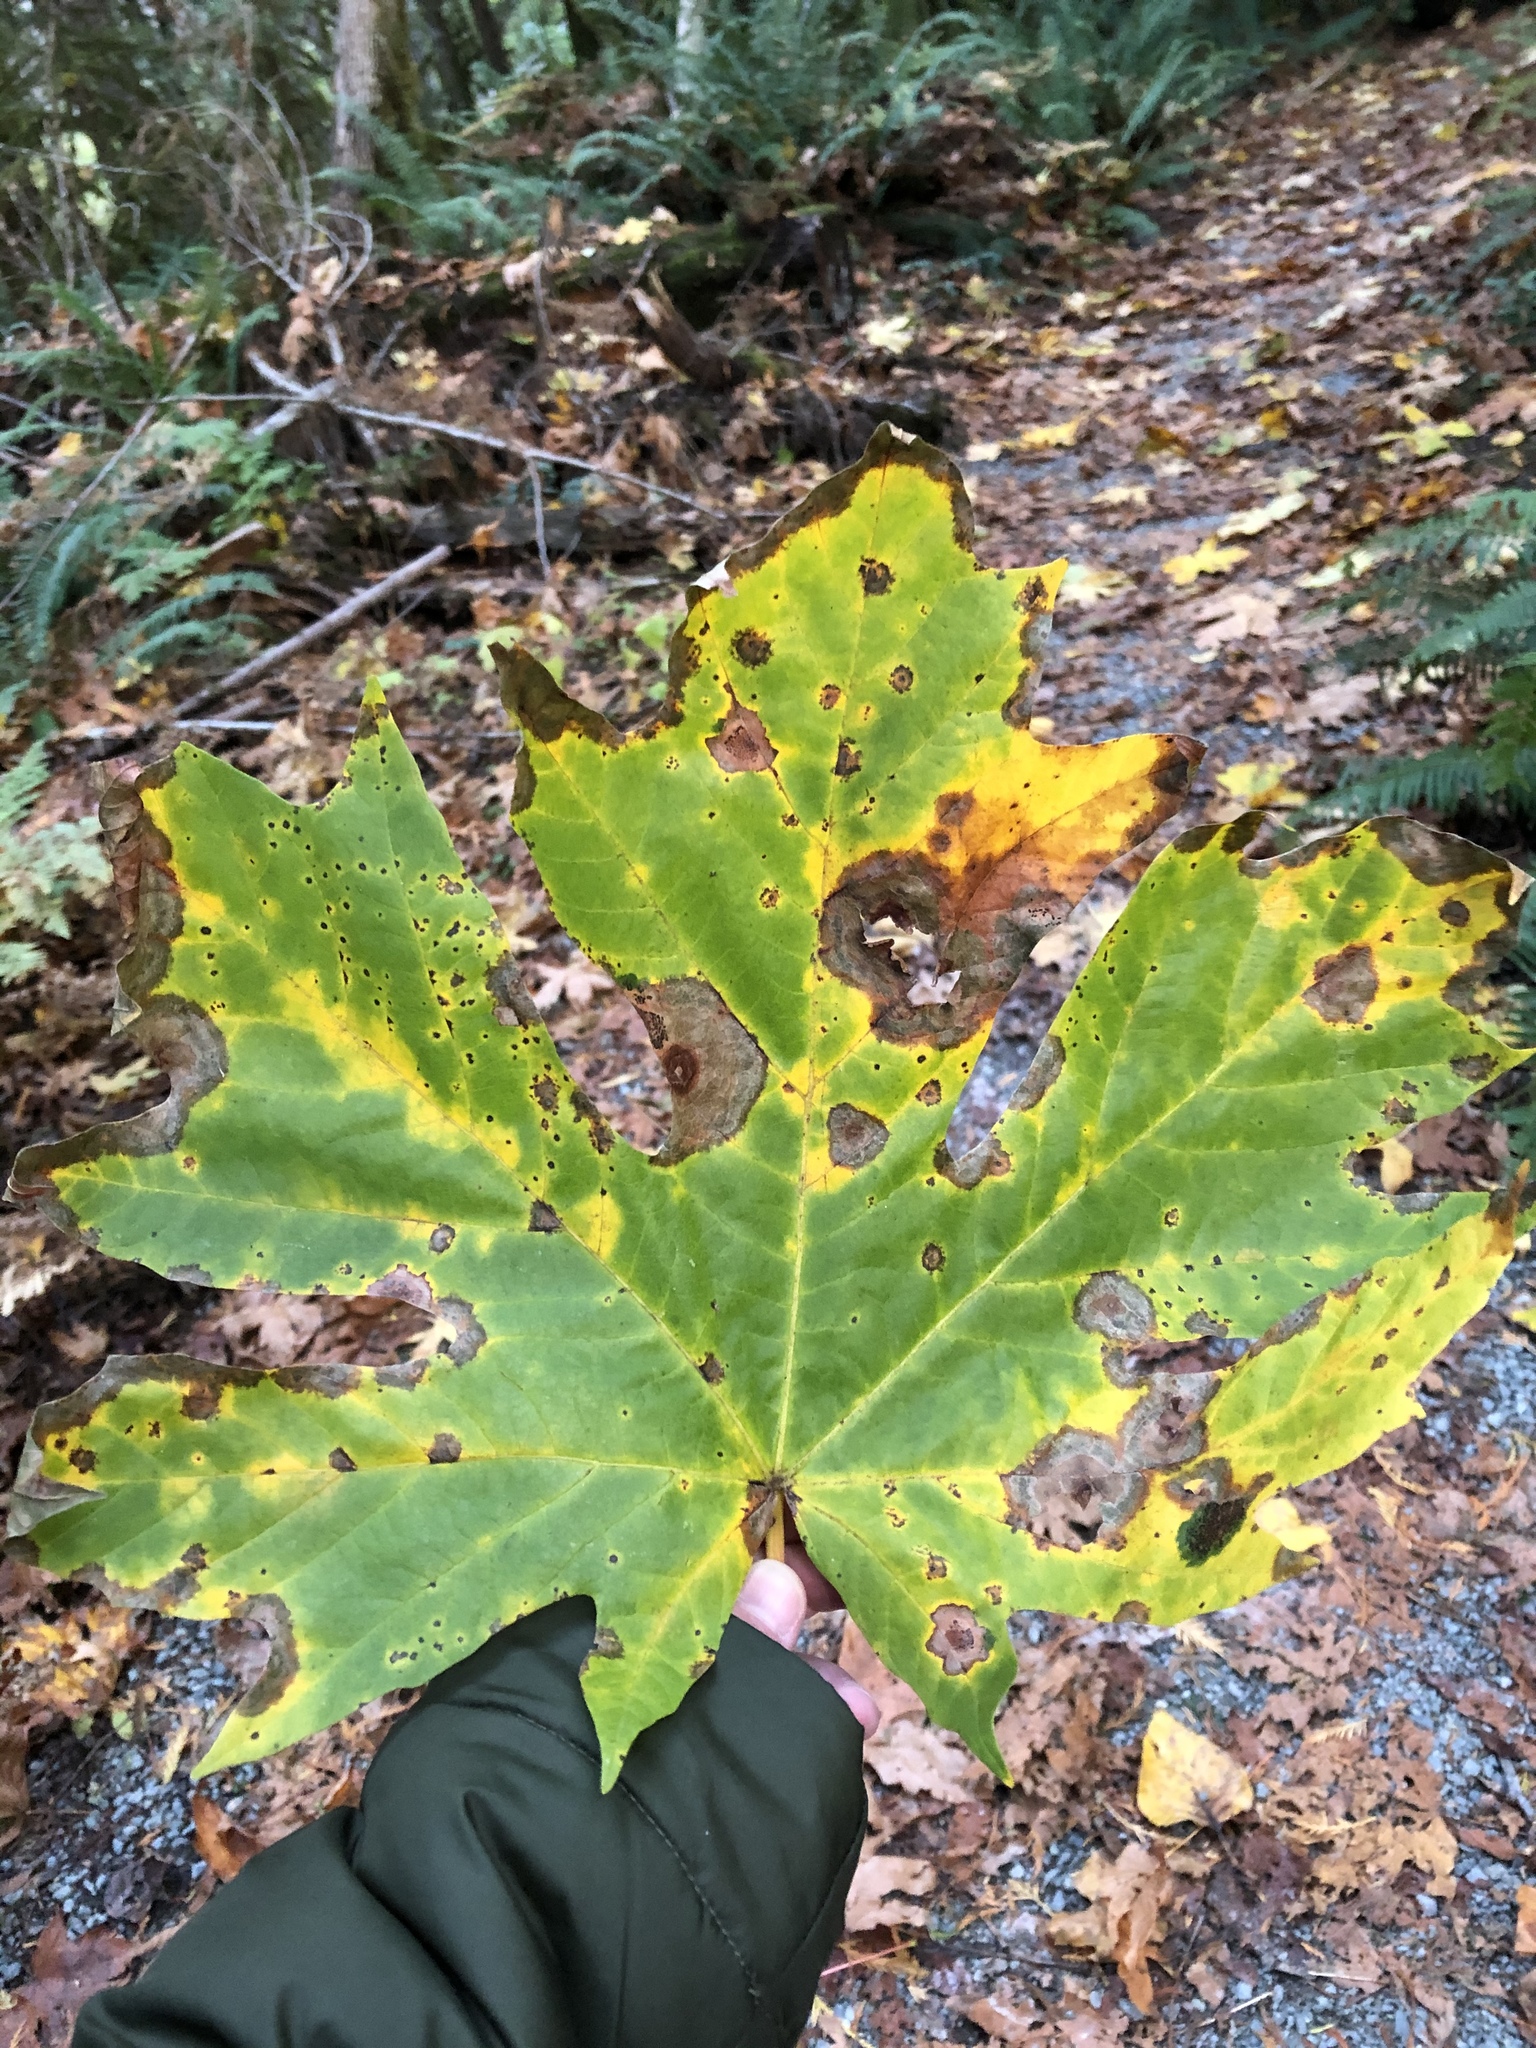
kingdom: Plantae
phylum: Tracheophyta
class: Magnoliopsida
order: Sapindales
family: Sapindaceae
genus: Acer
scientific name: Acer macrophyllum
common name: Oregon maple
